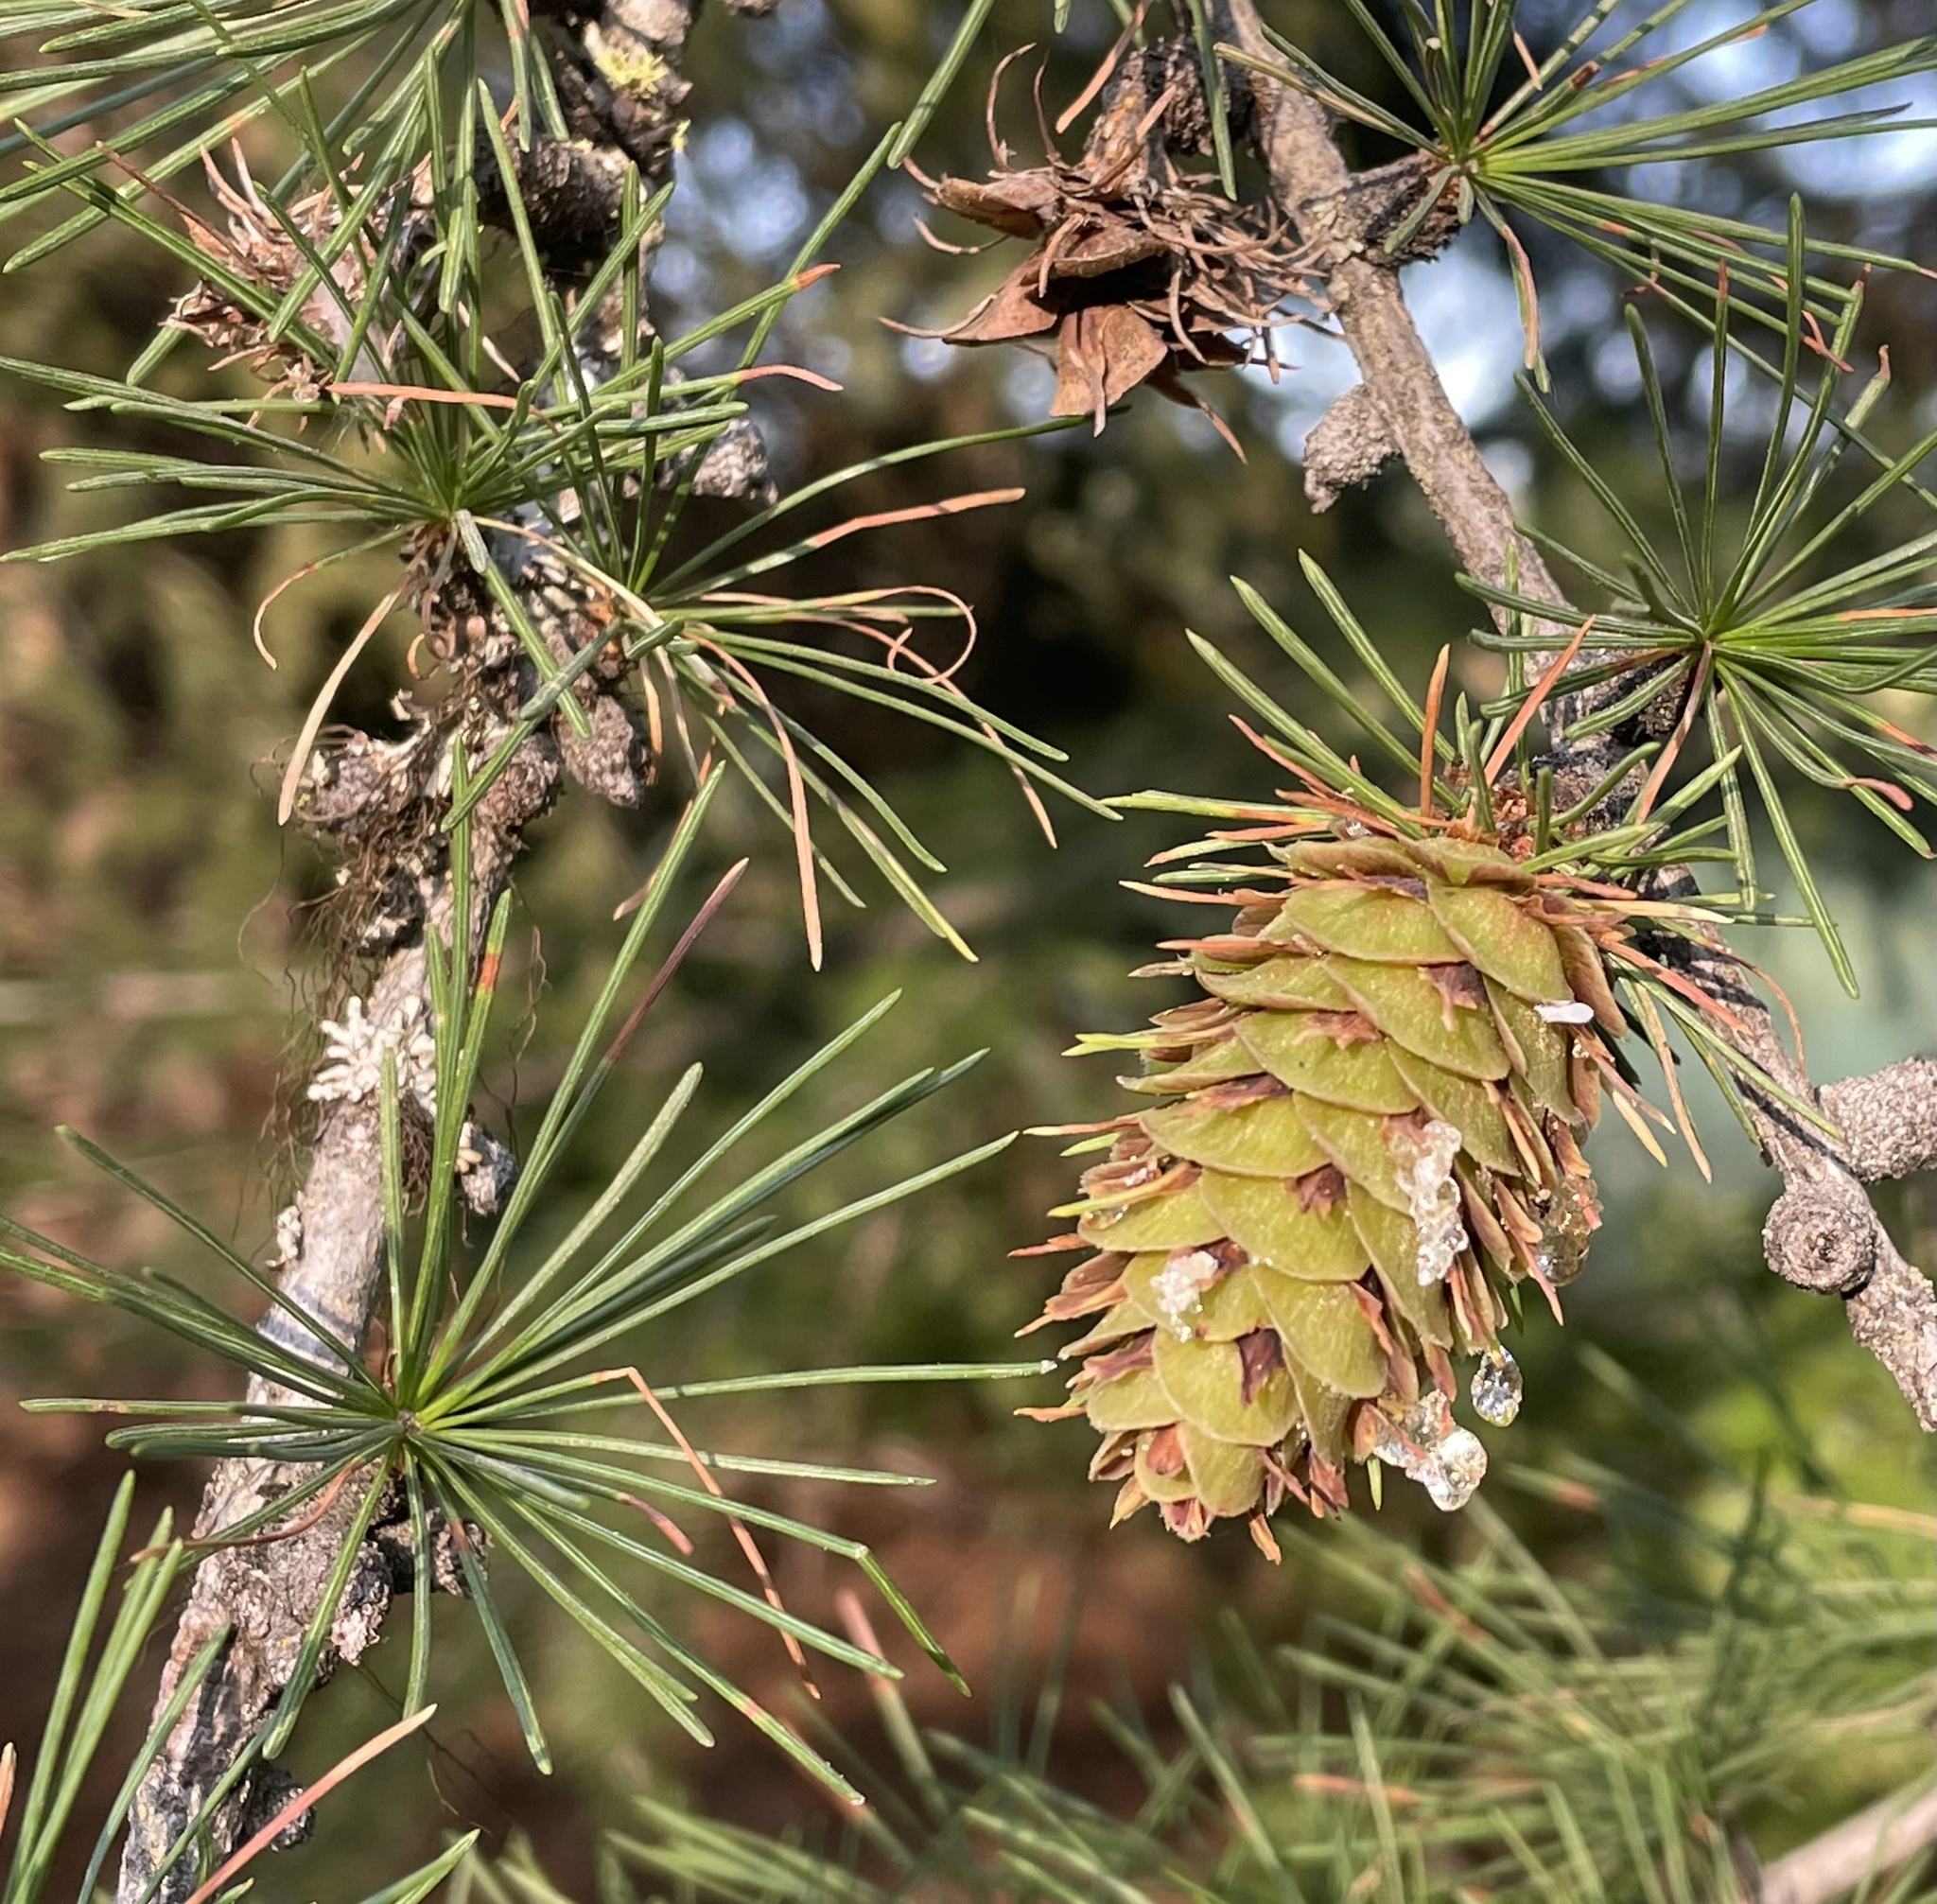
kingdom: Plantae
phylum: Tracheophyta
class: Pinopsida
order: Pinales
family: Pinaceae
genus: Larix
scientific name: Larix occidentalis
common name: Western larch
